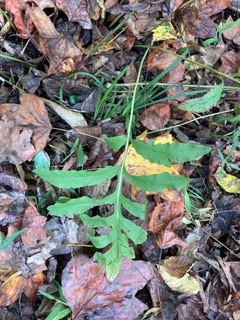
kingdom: Plantae
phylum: Tracheophyta
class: Polypodiopsida
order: Polypodiales
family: Onocleaceae
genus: Onoclea
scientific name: Onoclea sensibilis
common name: Sensitive fern
